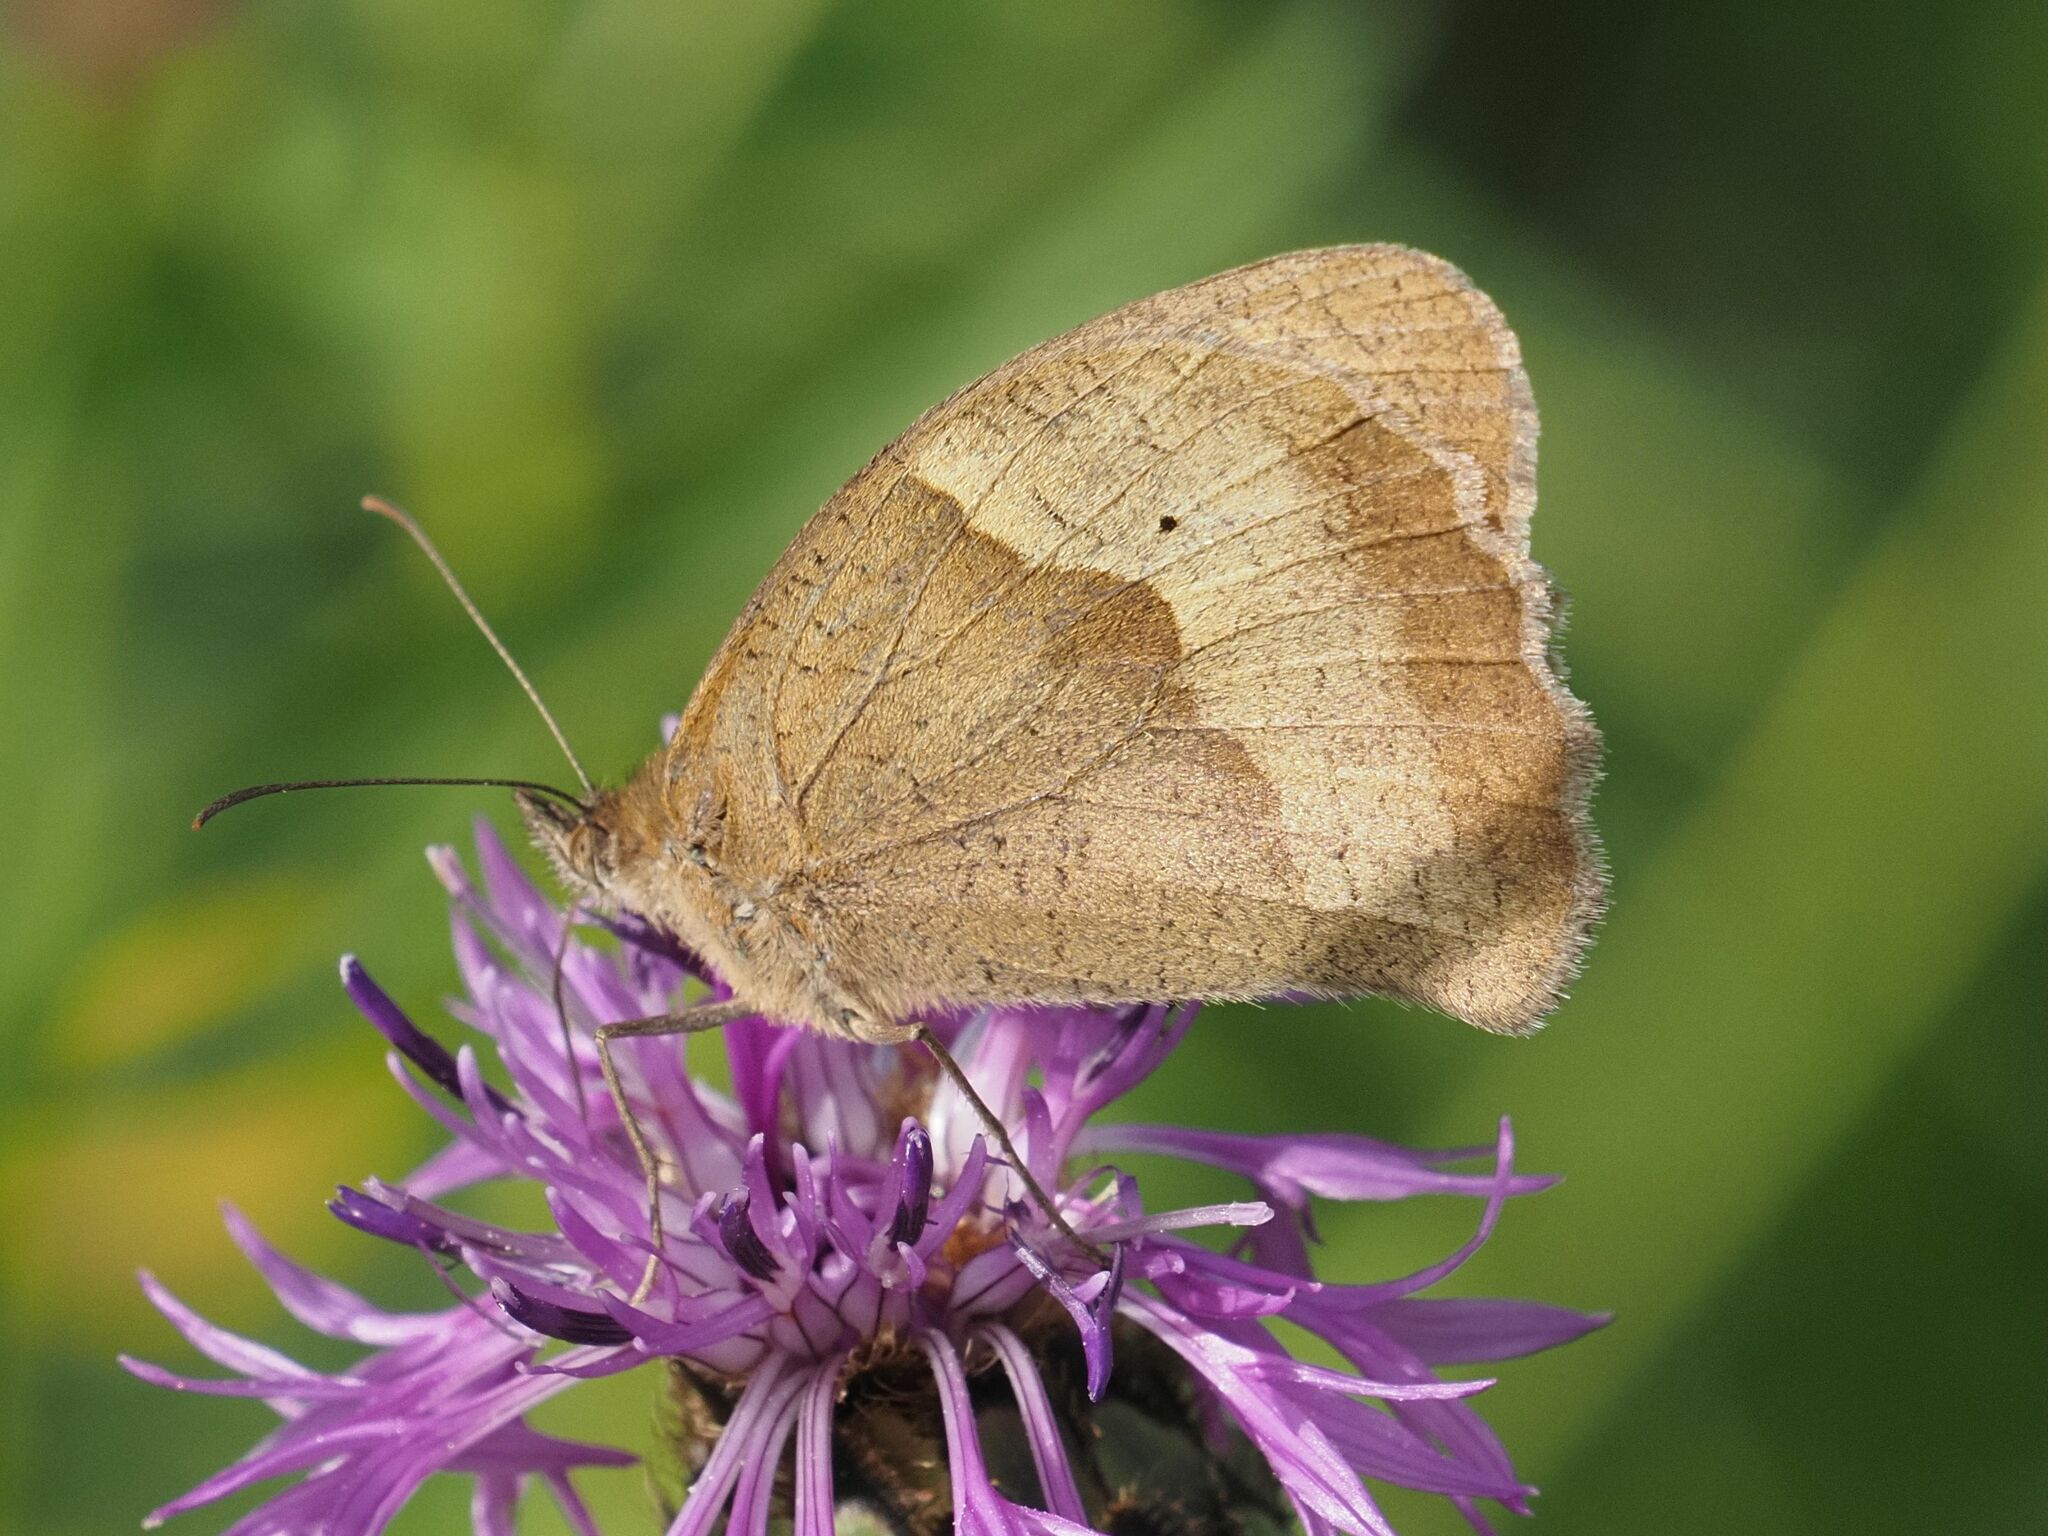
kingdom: Animalia
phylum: Arthropoda
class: Insecta
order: Lepidoptera
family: Nymphalidae
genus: Maniola
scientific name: Maniola jurtina
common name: Meadow brown
